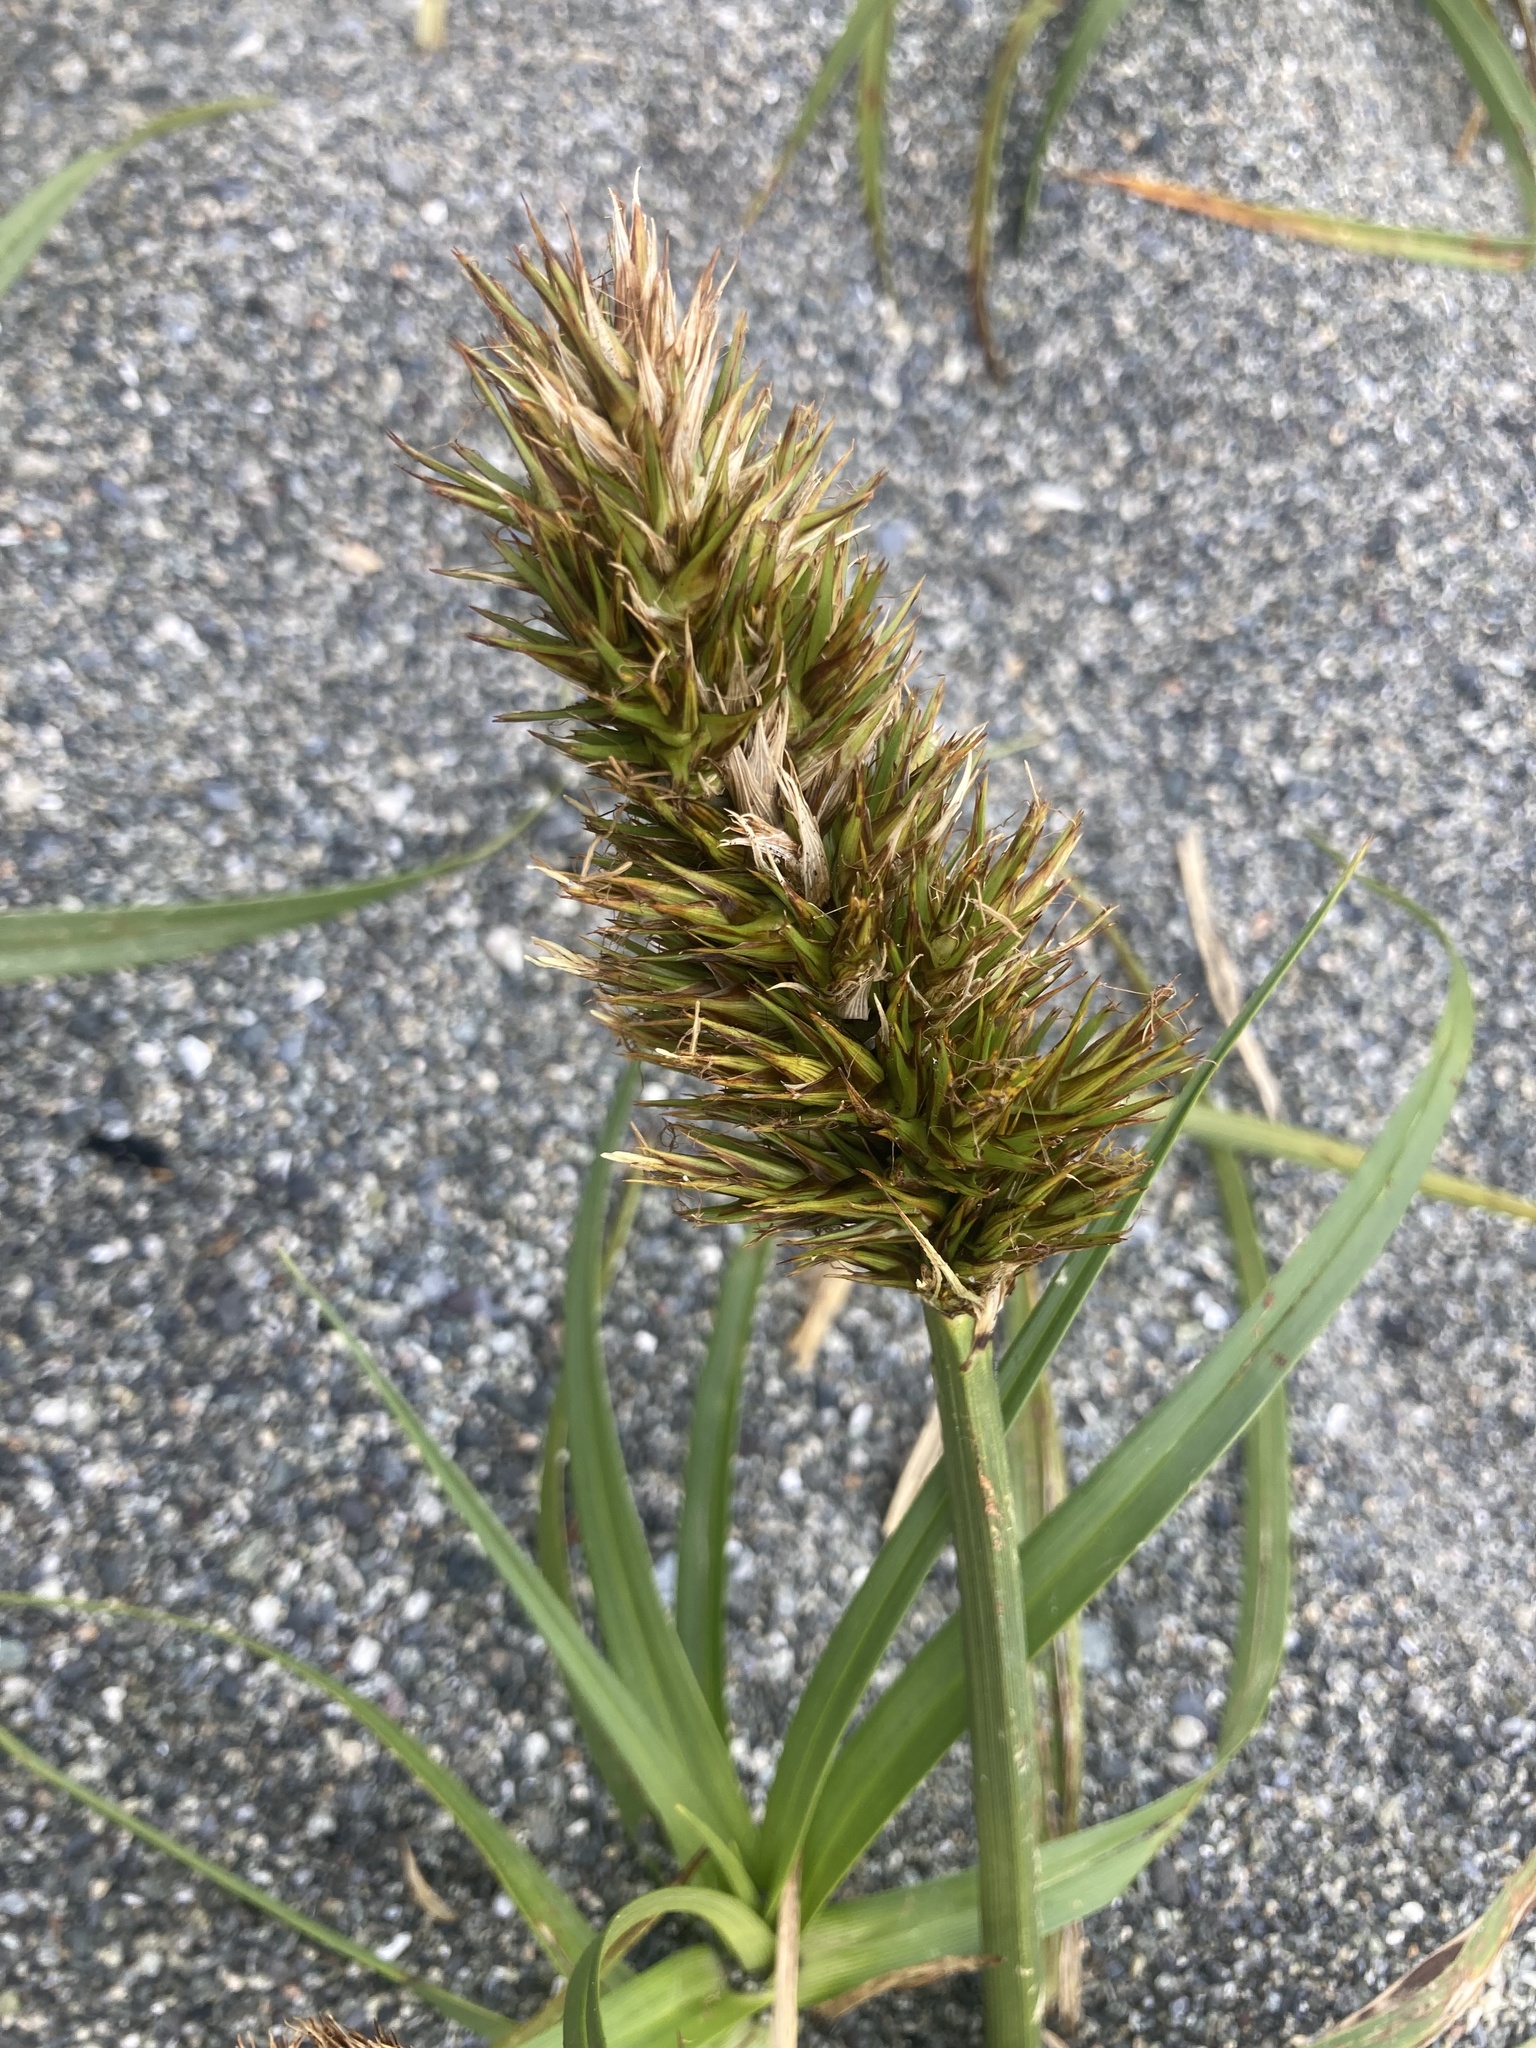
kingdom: Plantae
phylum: Tracheophyta
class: Liliopsida
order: Poales
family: Cyperaceae
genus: Carex
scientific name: Carex macrocephala
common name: Large-head sedge
